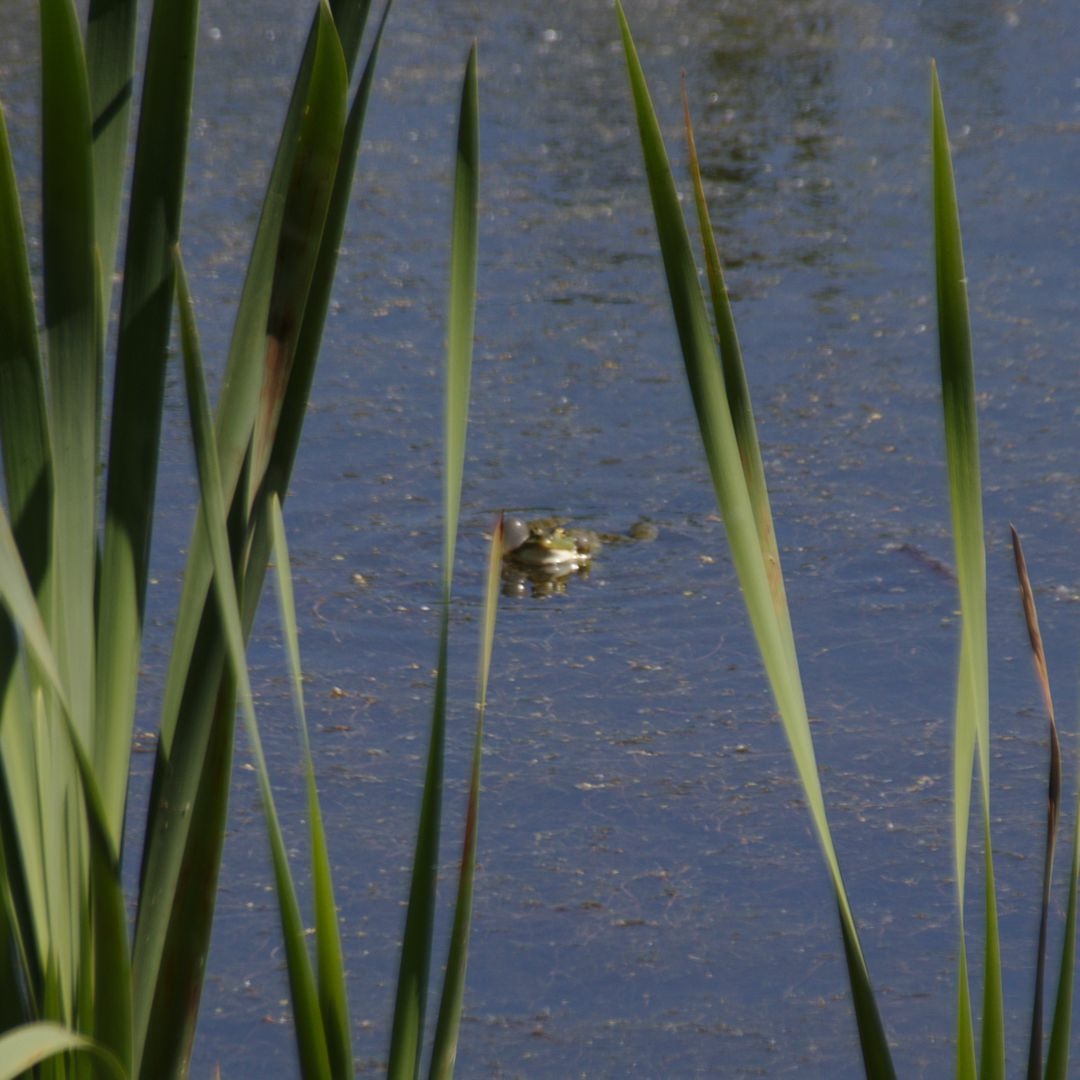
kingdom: Animalia
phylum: Chordata
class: Amphibia
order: Anura
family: Ranidae
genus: Pelophylax
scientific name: Pelophylax ridibundus
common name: Marsh frog
